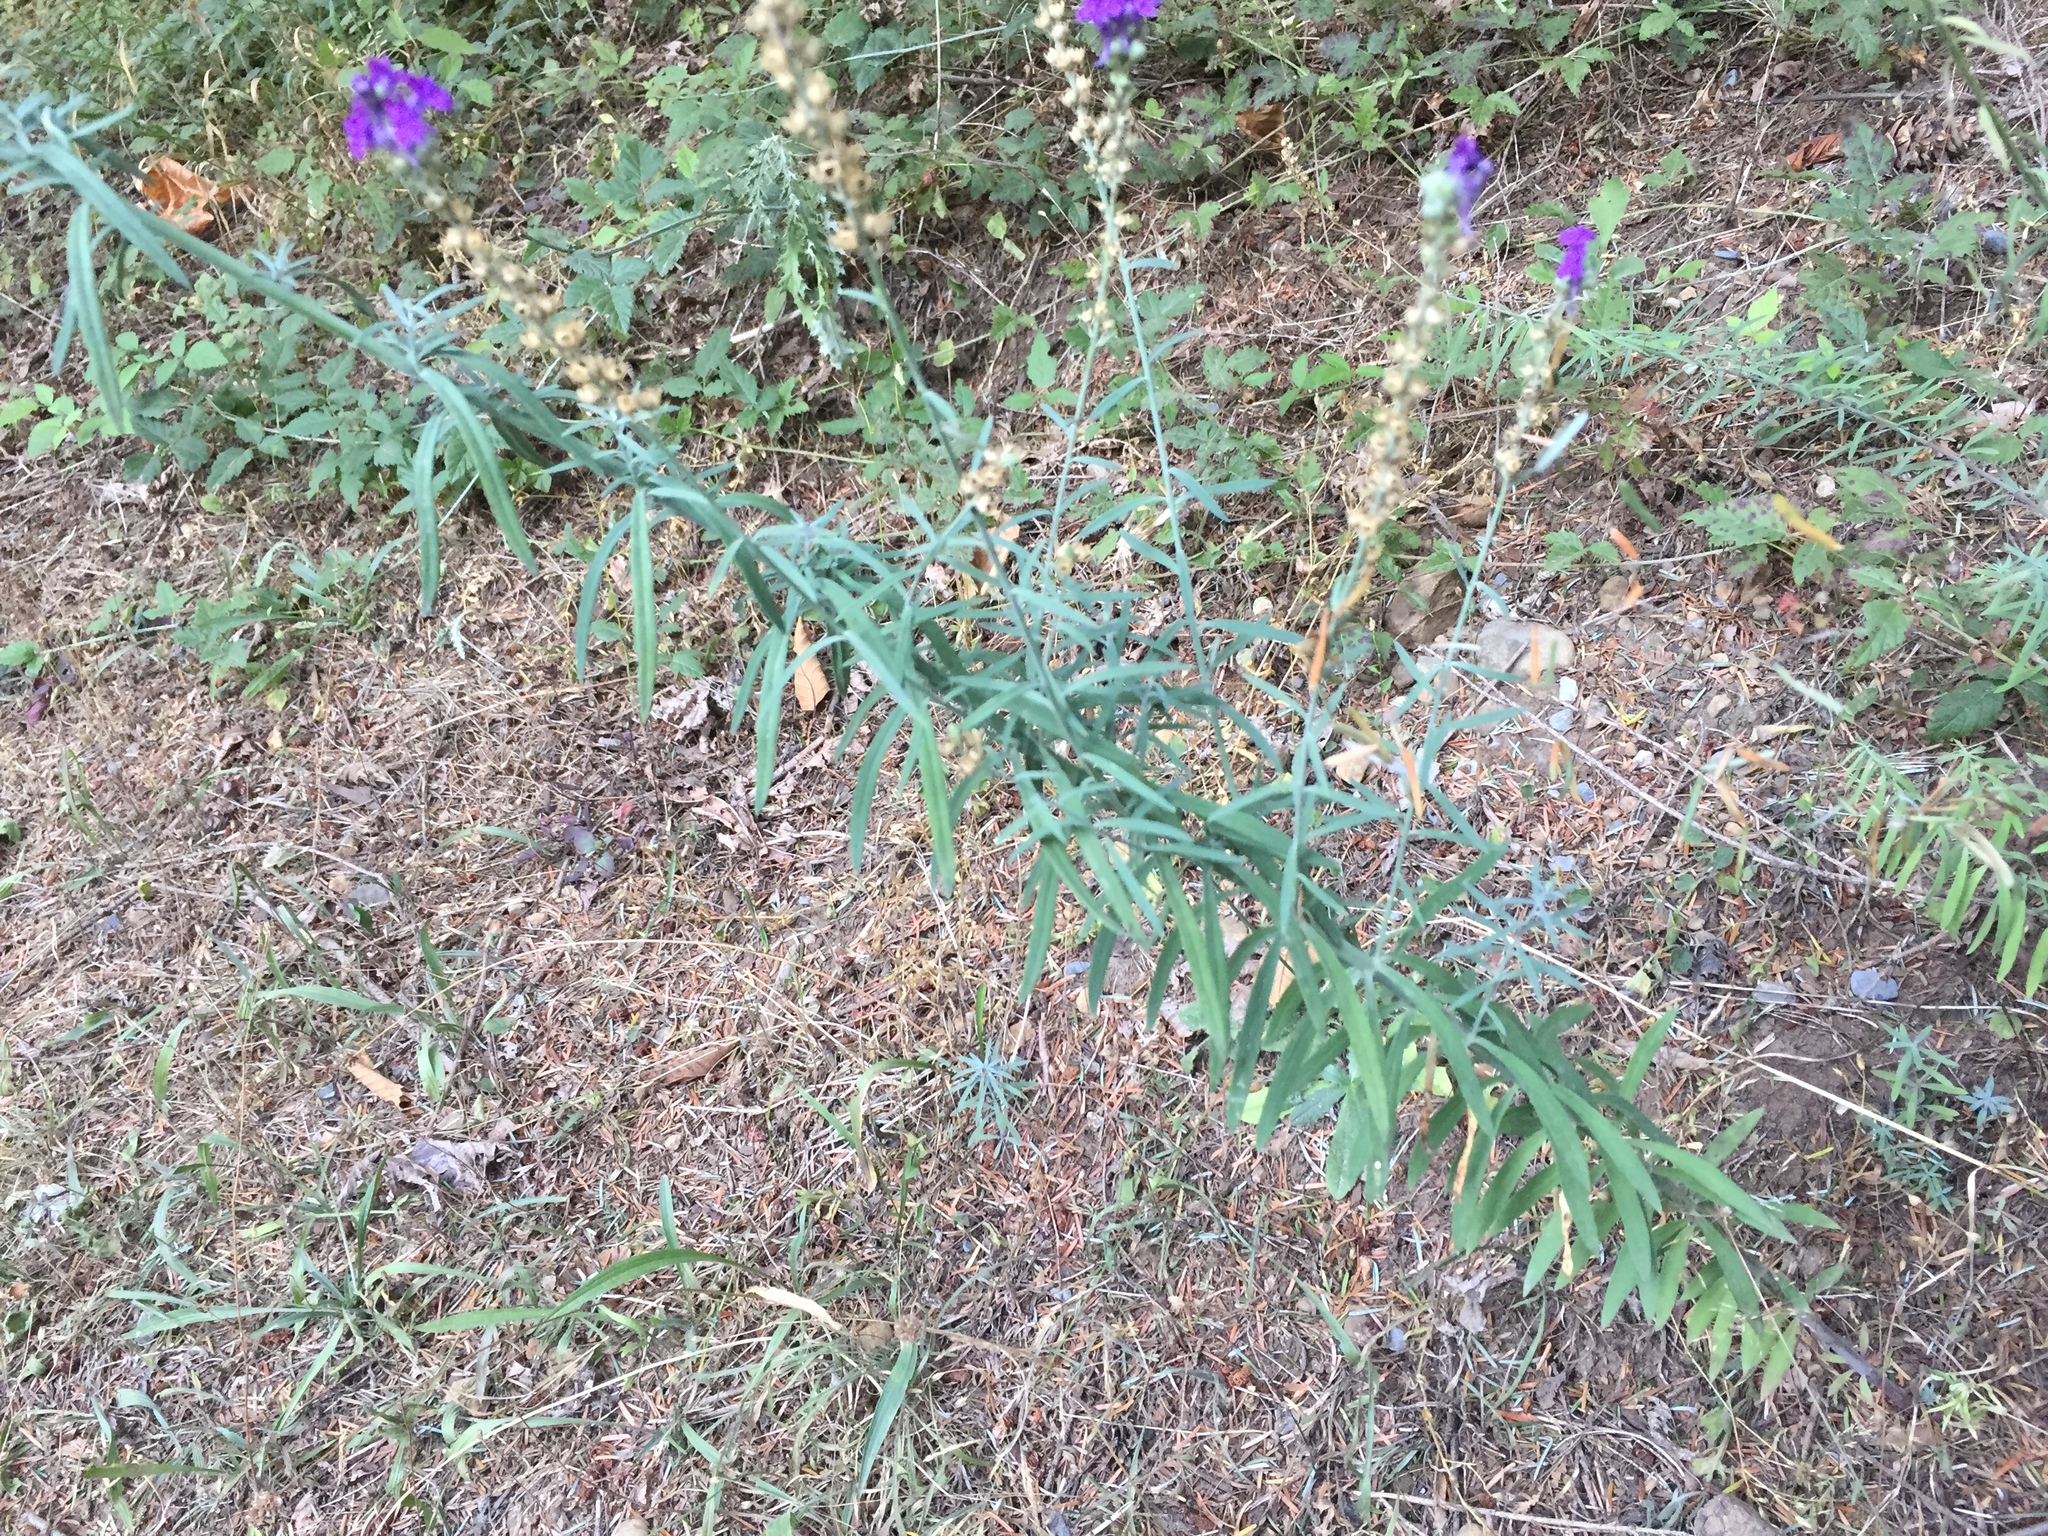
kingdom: Plantae
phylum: Tracheophyta
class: Magnoliopsida
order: Lamiales
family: Plantaginaceae
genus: Linaria
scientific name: Linaria purpurea
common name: Purple toadflax
